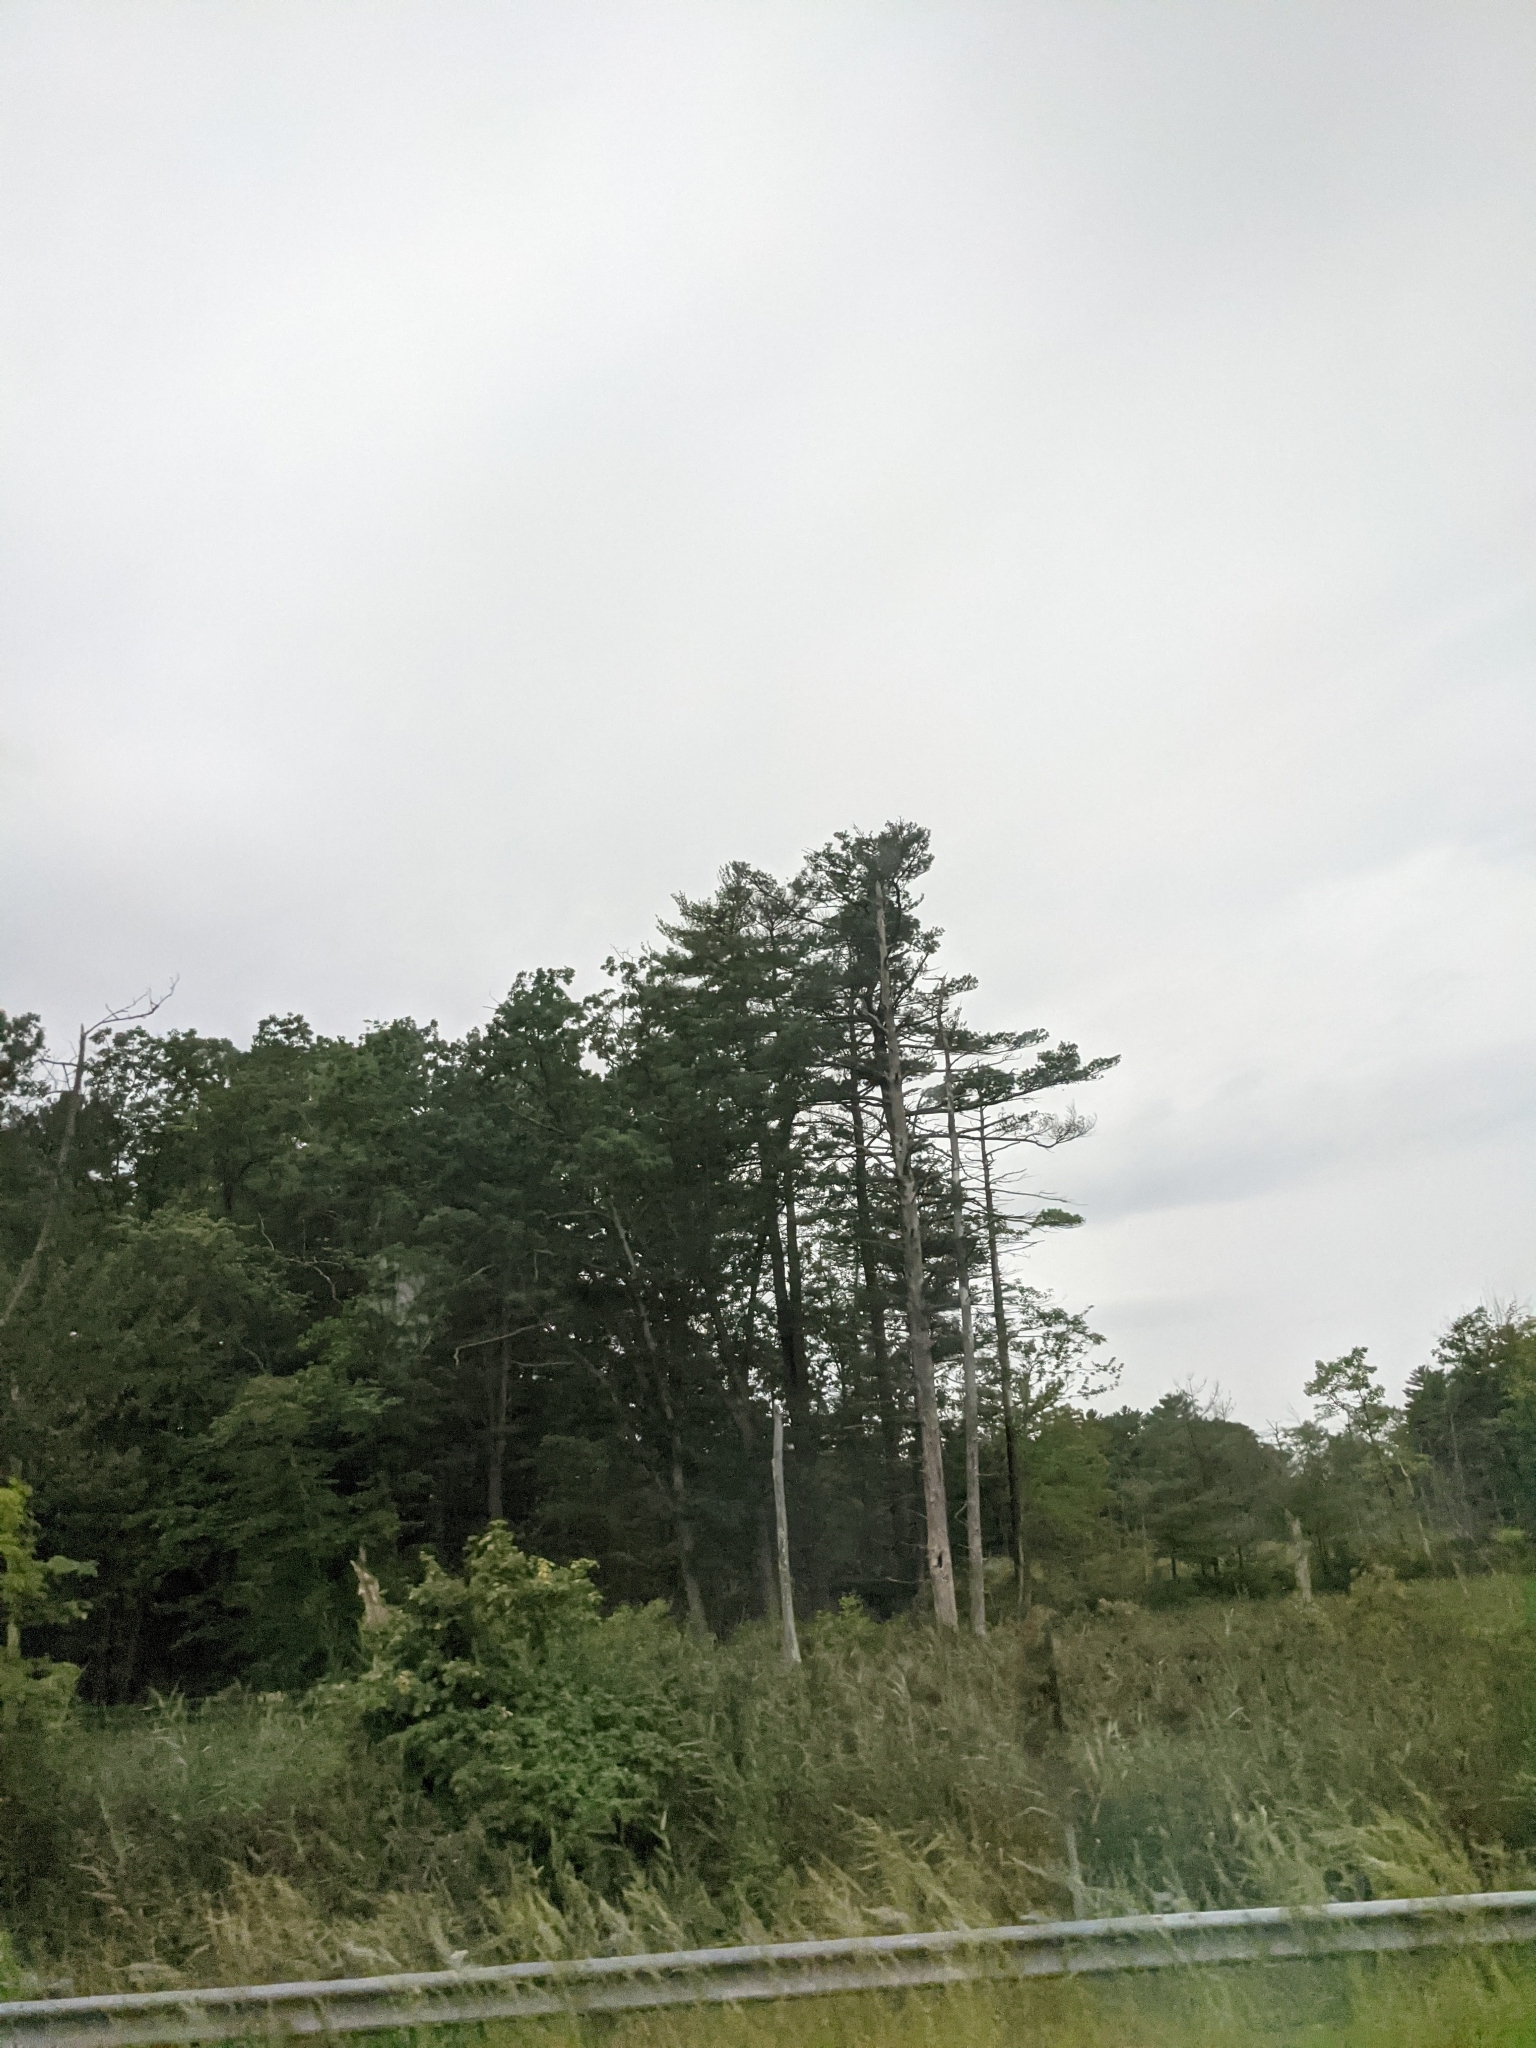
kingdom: Plantae
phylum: Tracheophyta
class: Pinopsida
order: Pinales
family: Pinaceae
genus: Pinus
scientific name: Pinus strobus
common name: Weymouth pine
